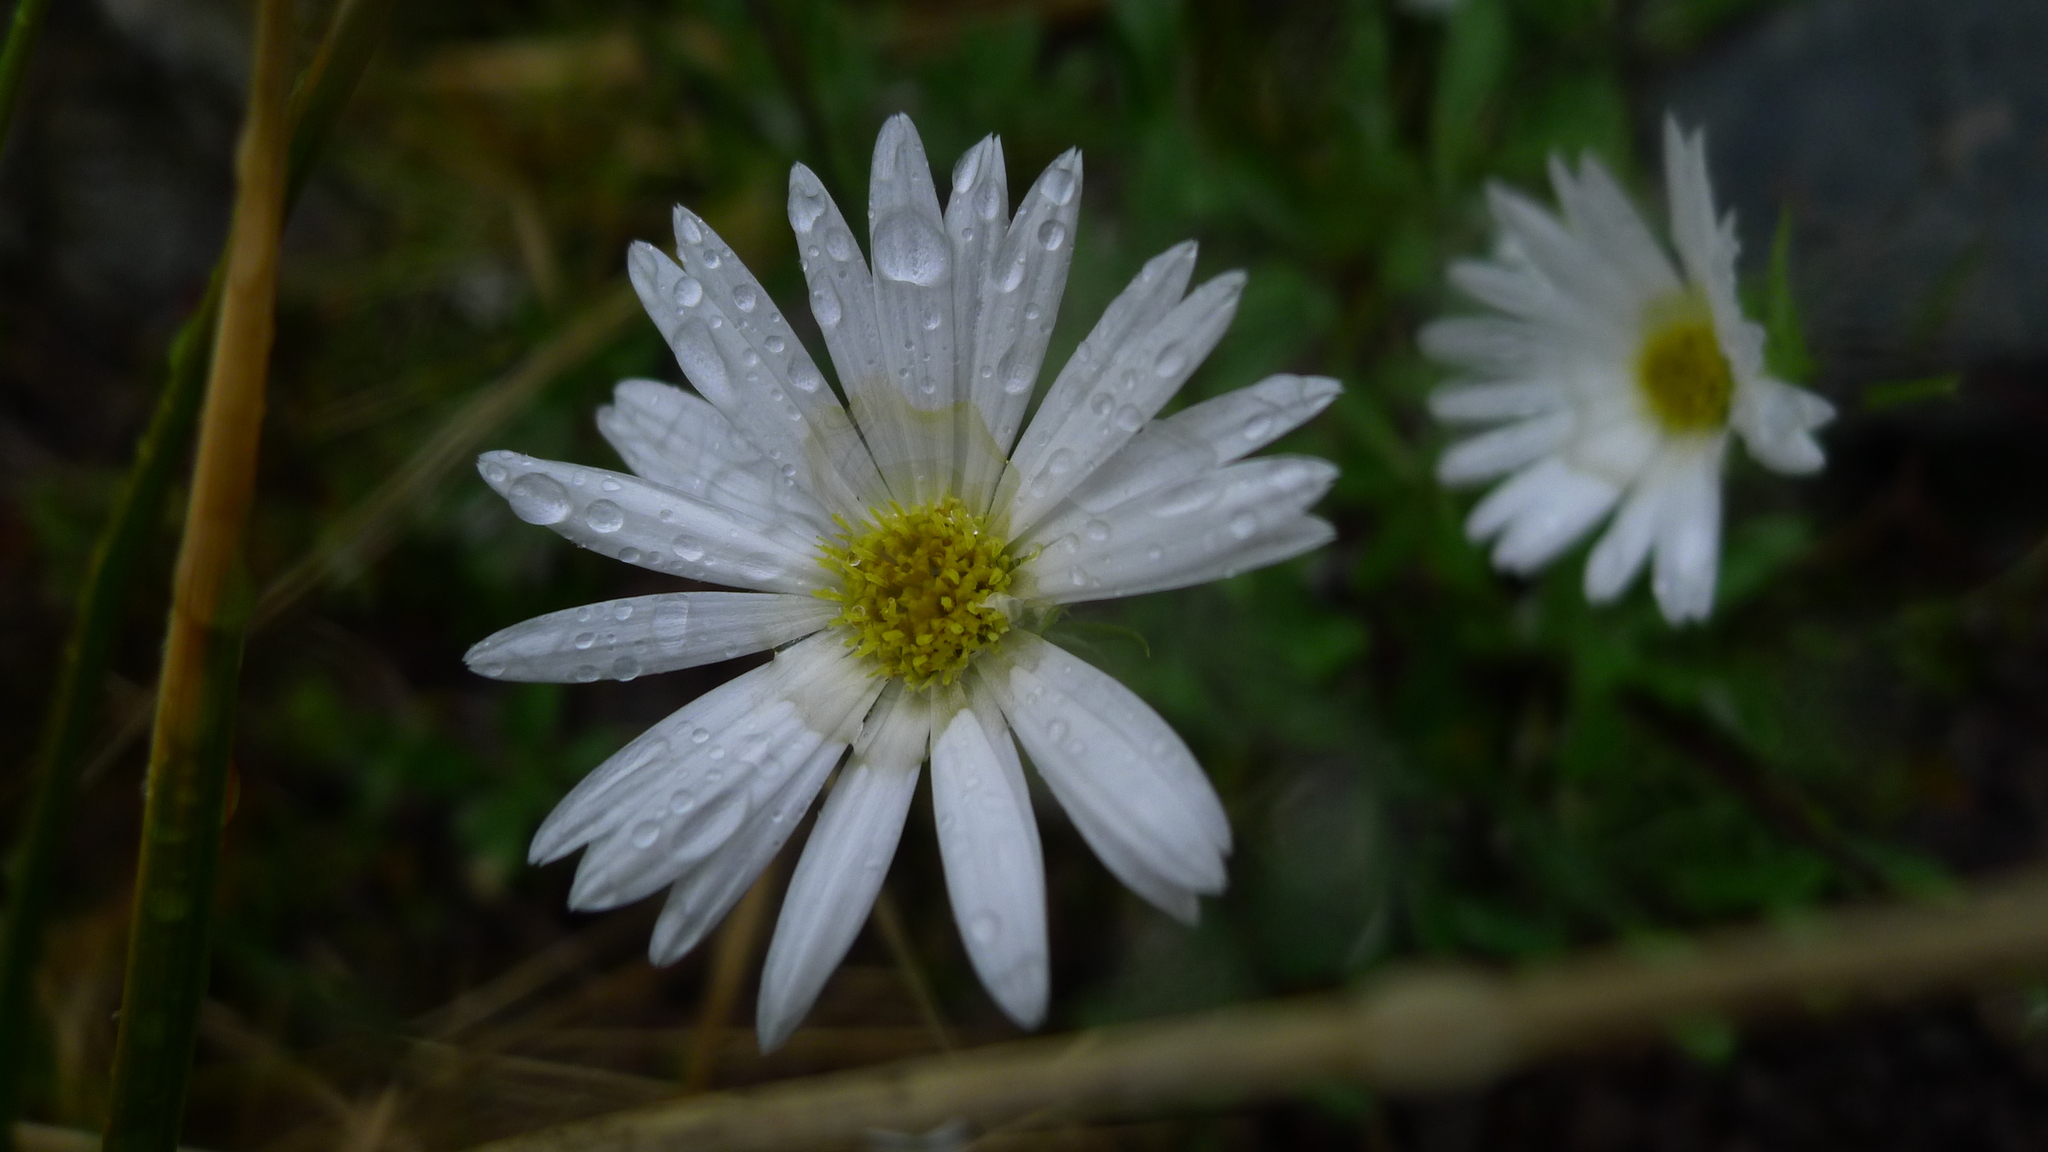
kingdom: Plantae
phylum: Tracheophyta
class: Magnoliopsida
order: Asterales
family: Asteraceae
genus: Celmisia
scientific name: Celmisia durietzii
